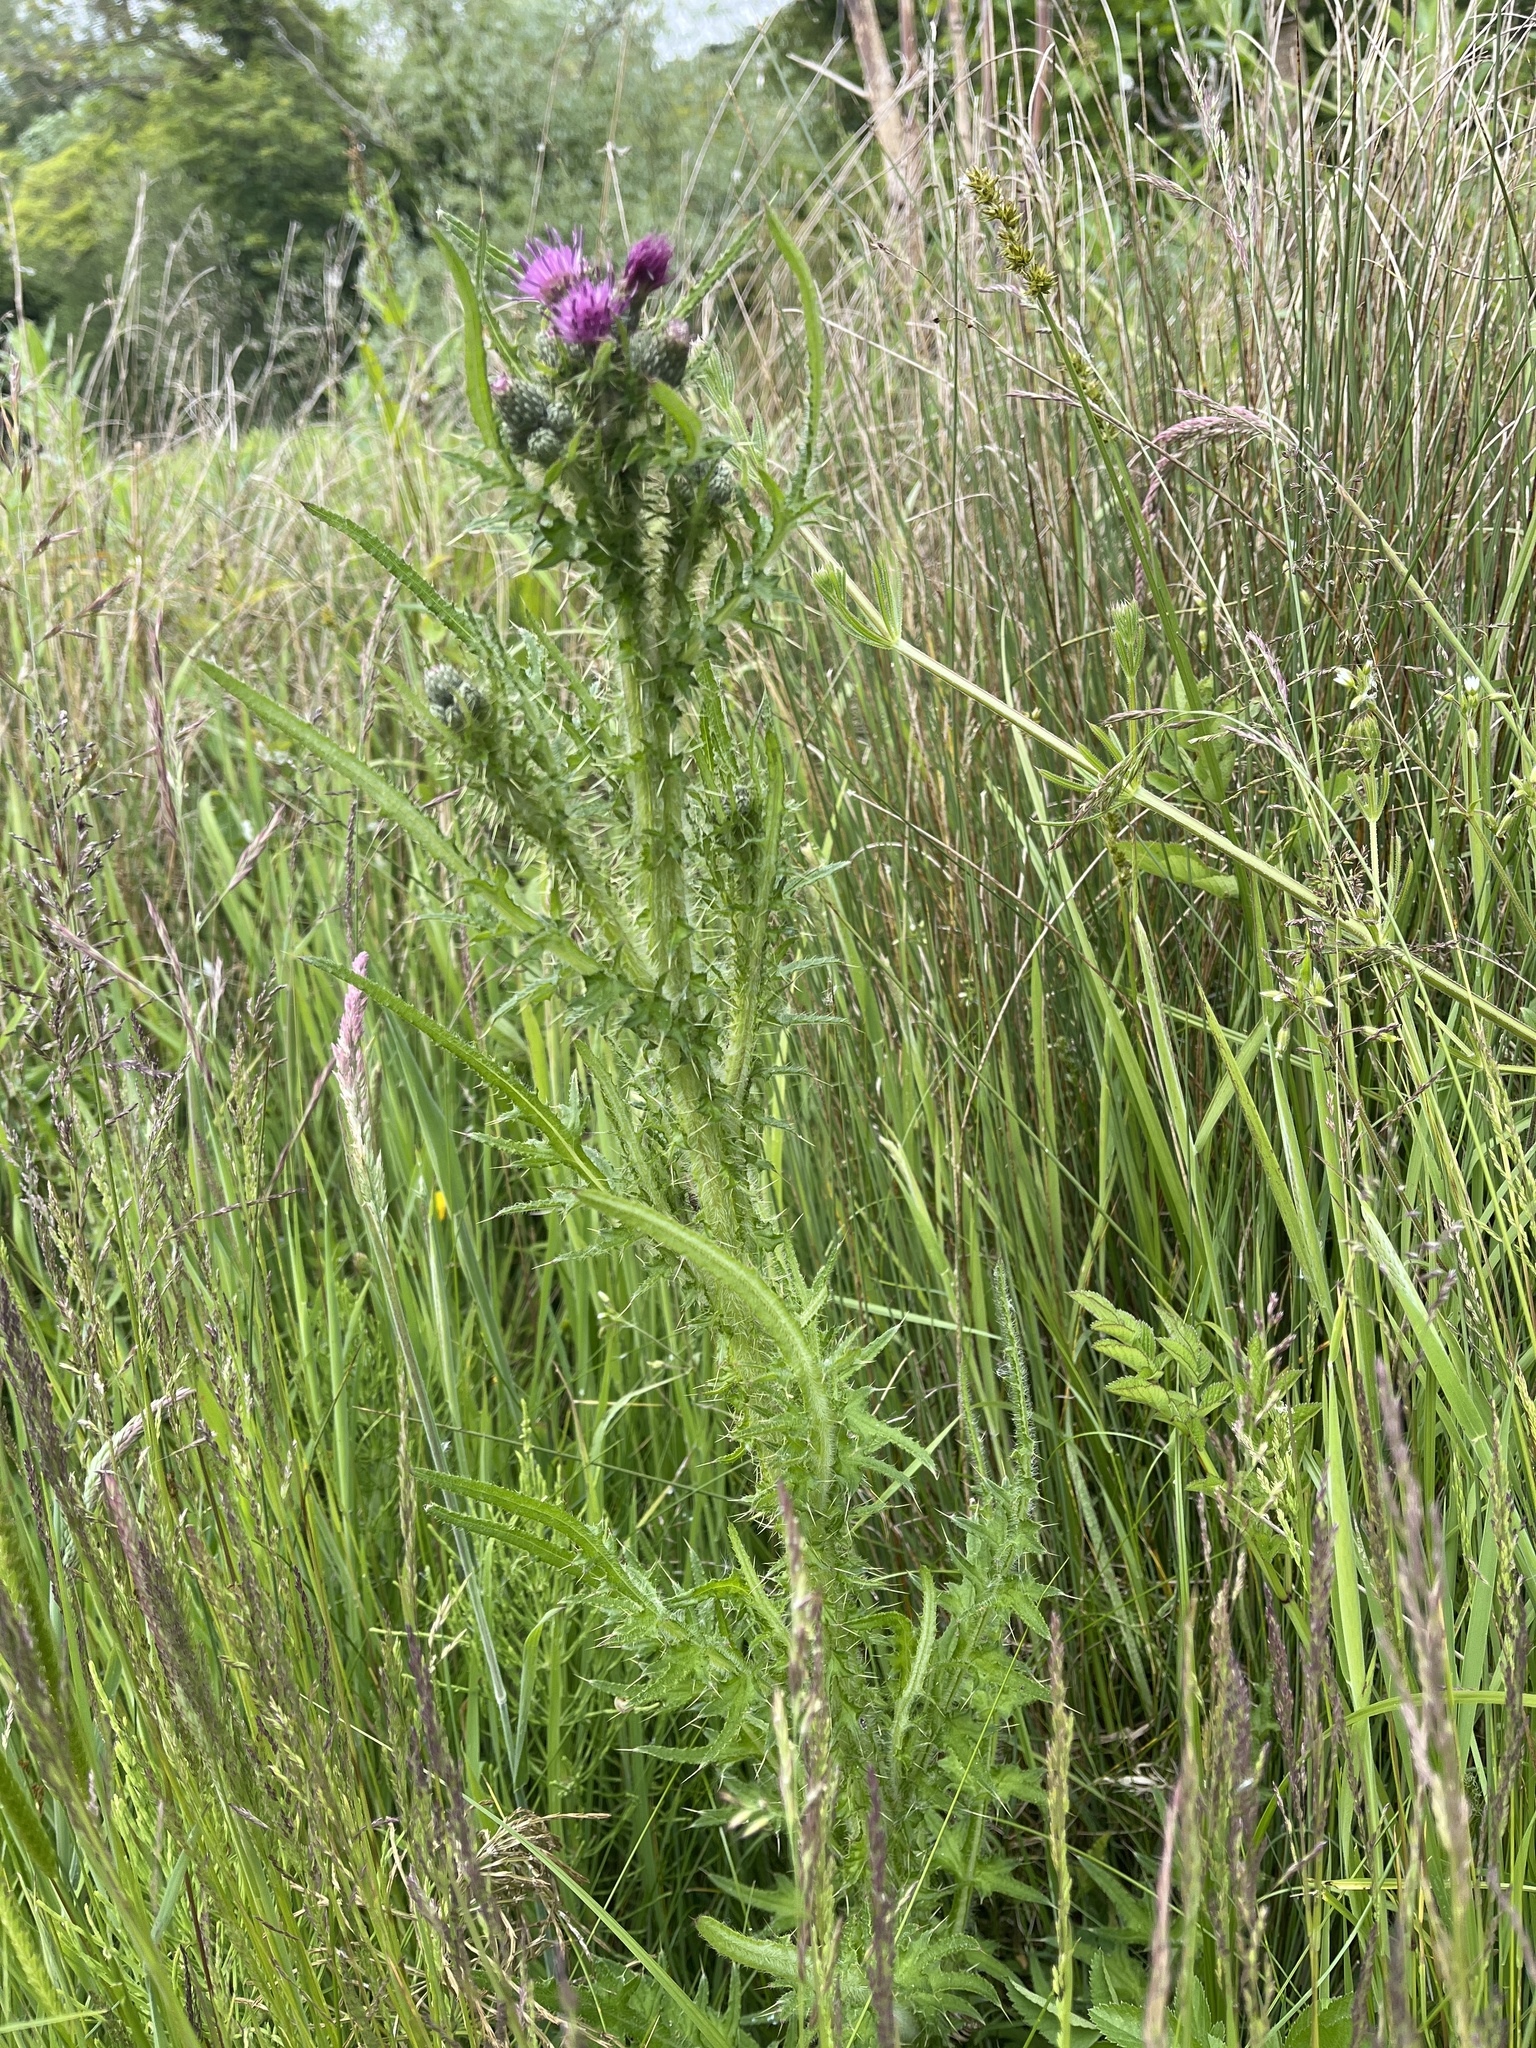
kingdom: Plantae
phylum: Tracheophyta
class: Magnoliopsida
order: Asterales
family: Asteraceae
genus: Cirsium
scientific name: Cirsium palustre
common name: Marsh thistle
